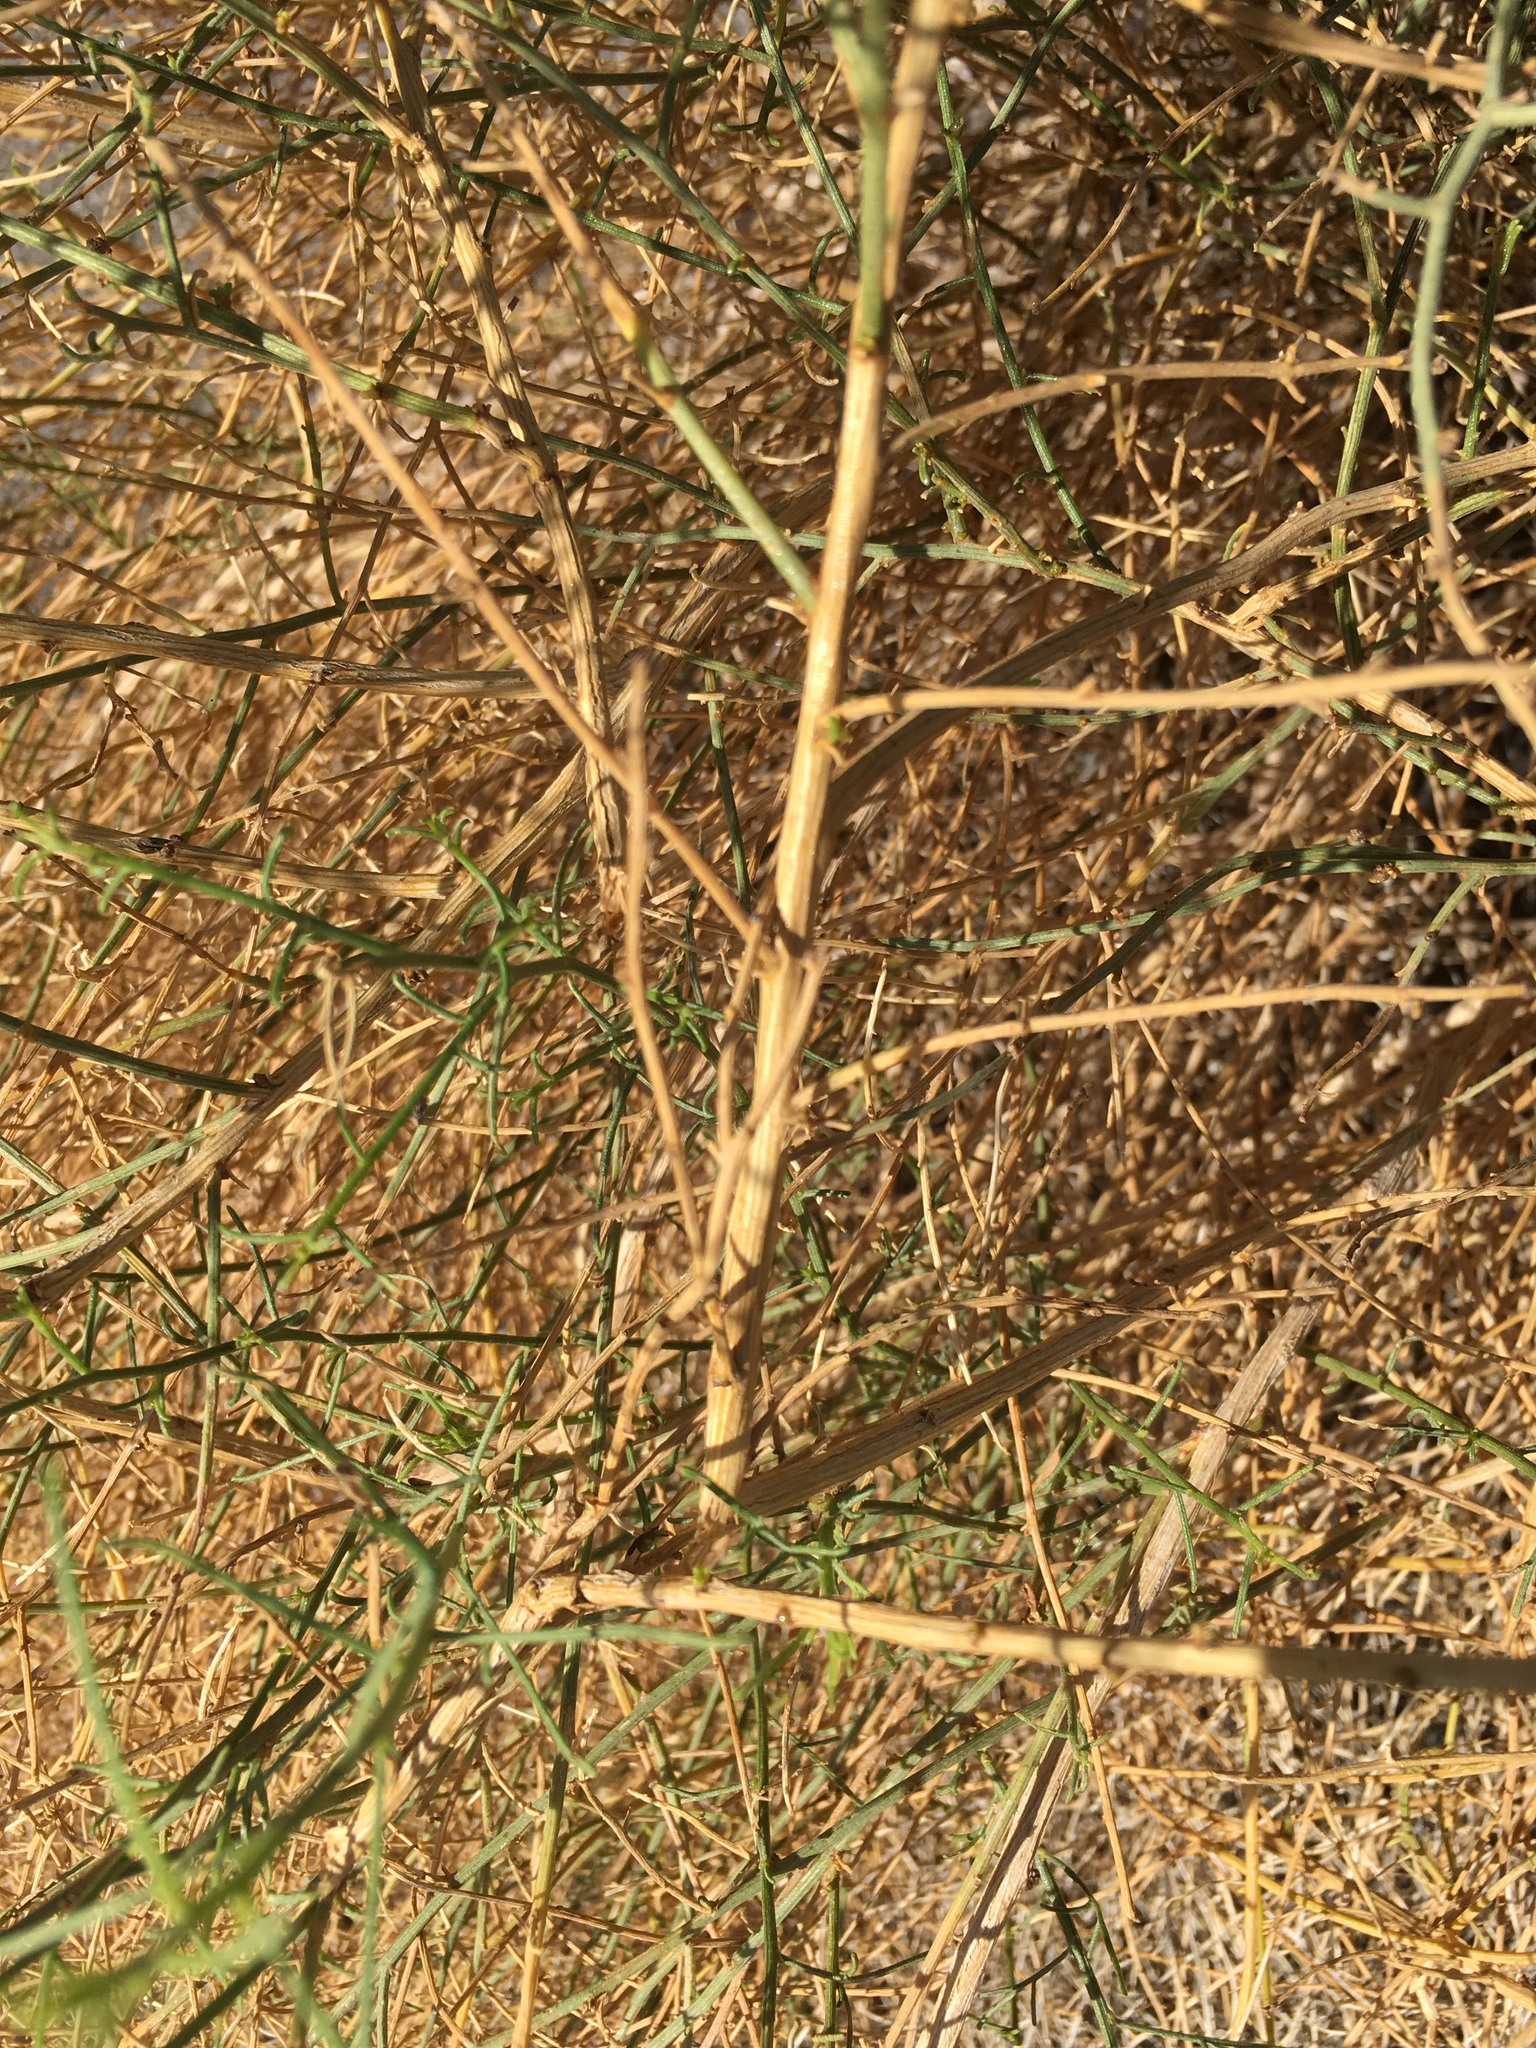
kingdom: Plantae
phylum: Tracheophyta
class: Magnoliopsida
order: Asterales
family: Asteraceae
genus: Ambrosia
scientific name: Ambrosia salsola
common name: Burrobrush
